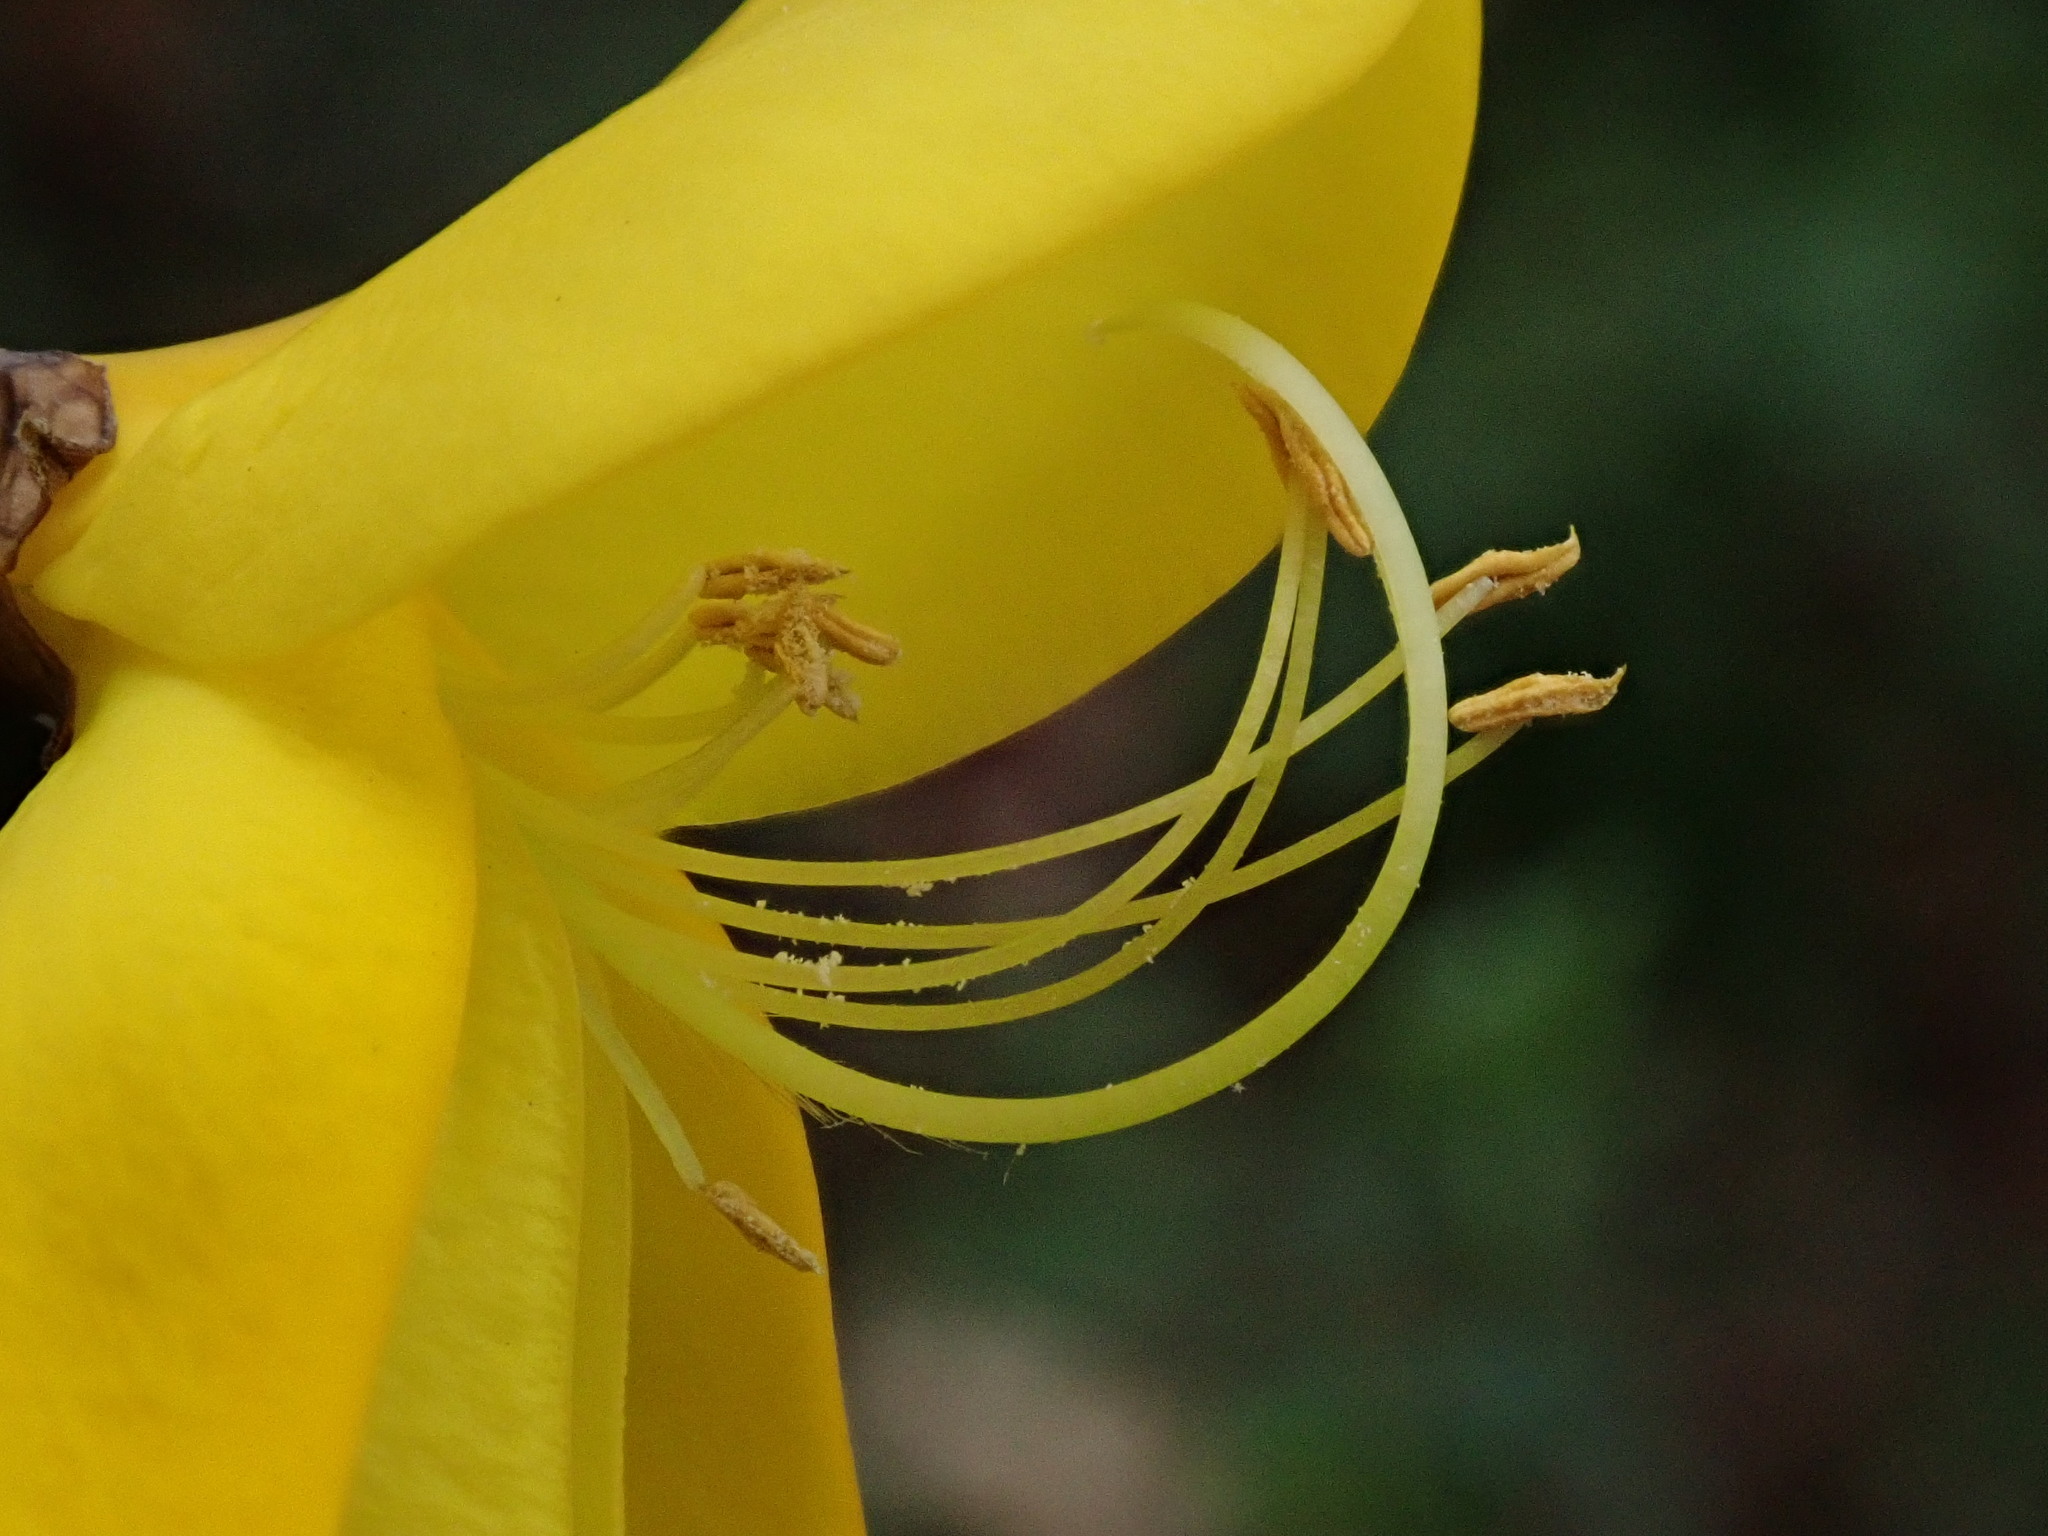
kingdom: Plantae
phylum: Tracheophyta
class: Magnoliopsida
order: Fabales
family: Fabaceae
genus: Cytisus
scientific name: Cytisus scoparius
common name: Scotch broom
